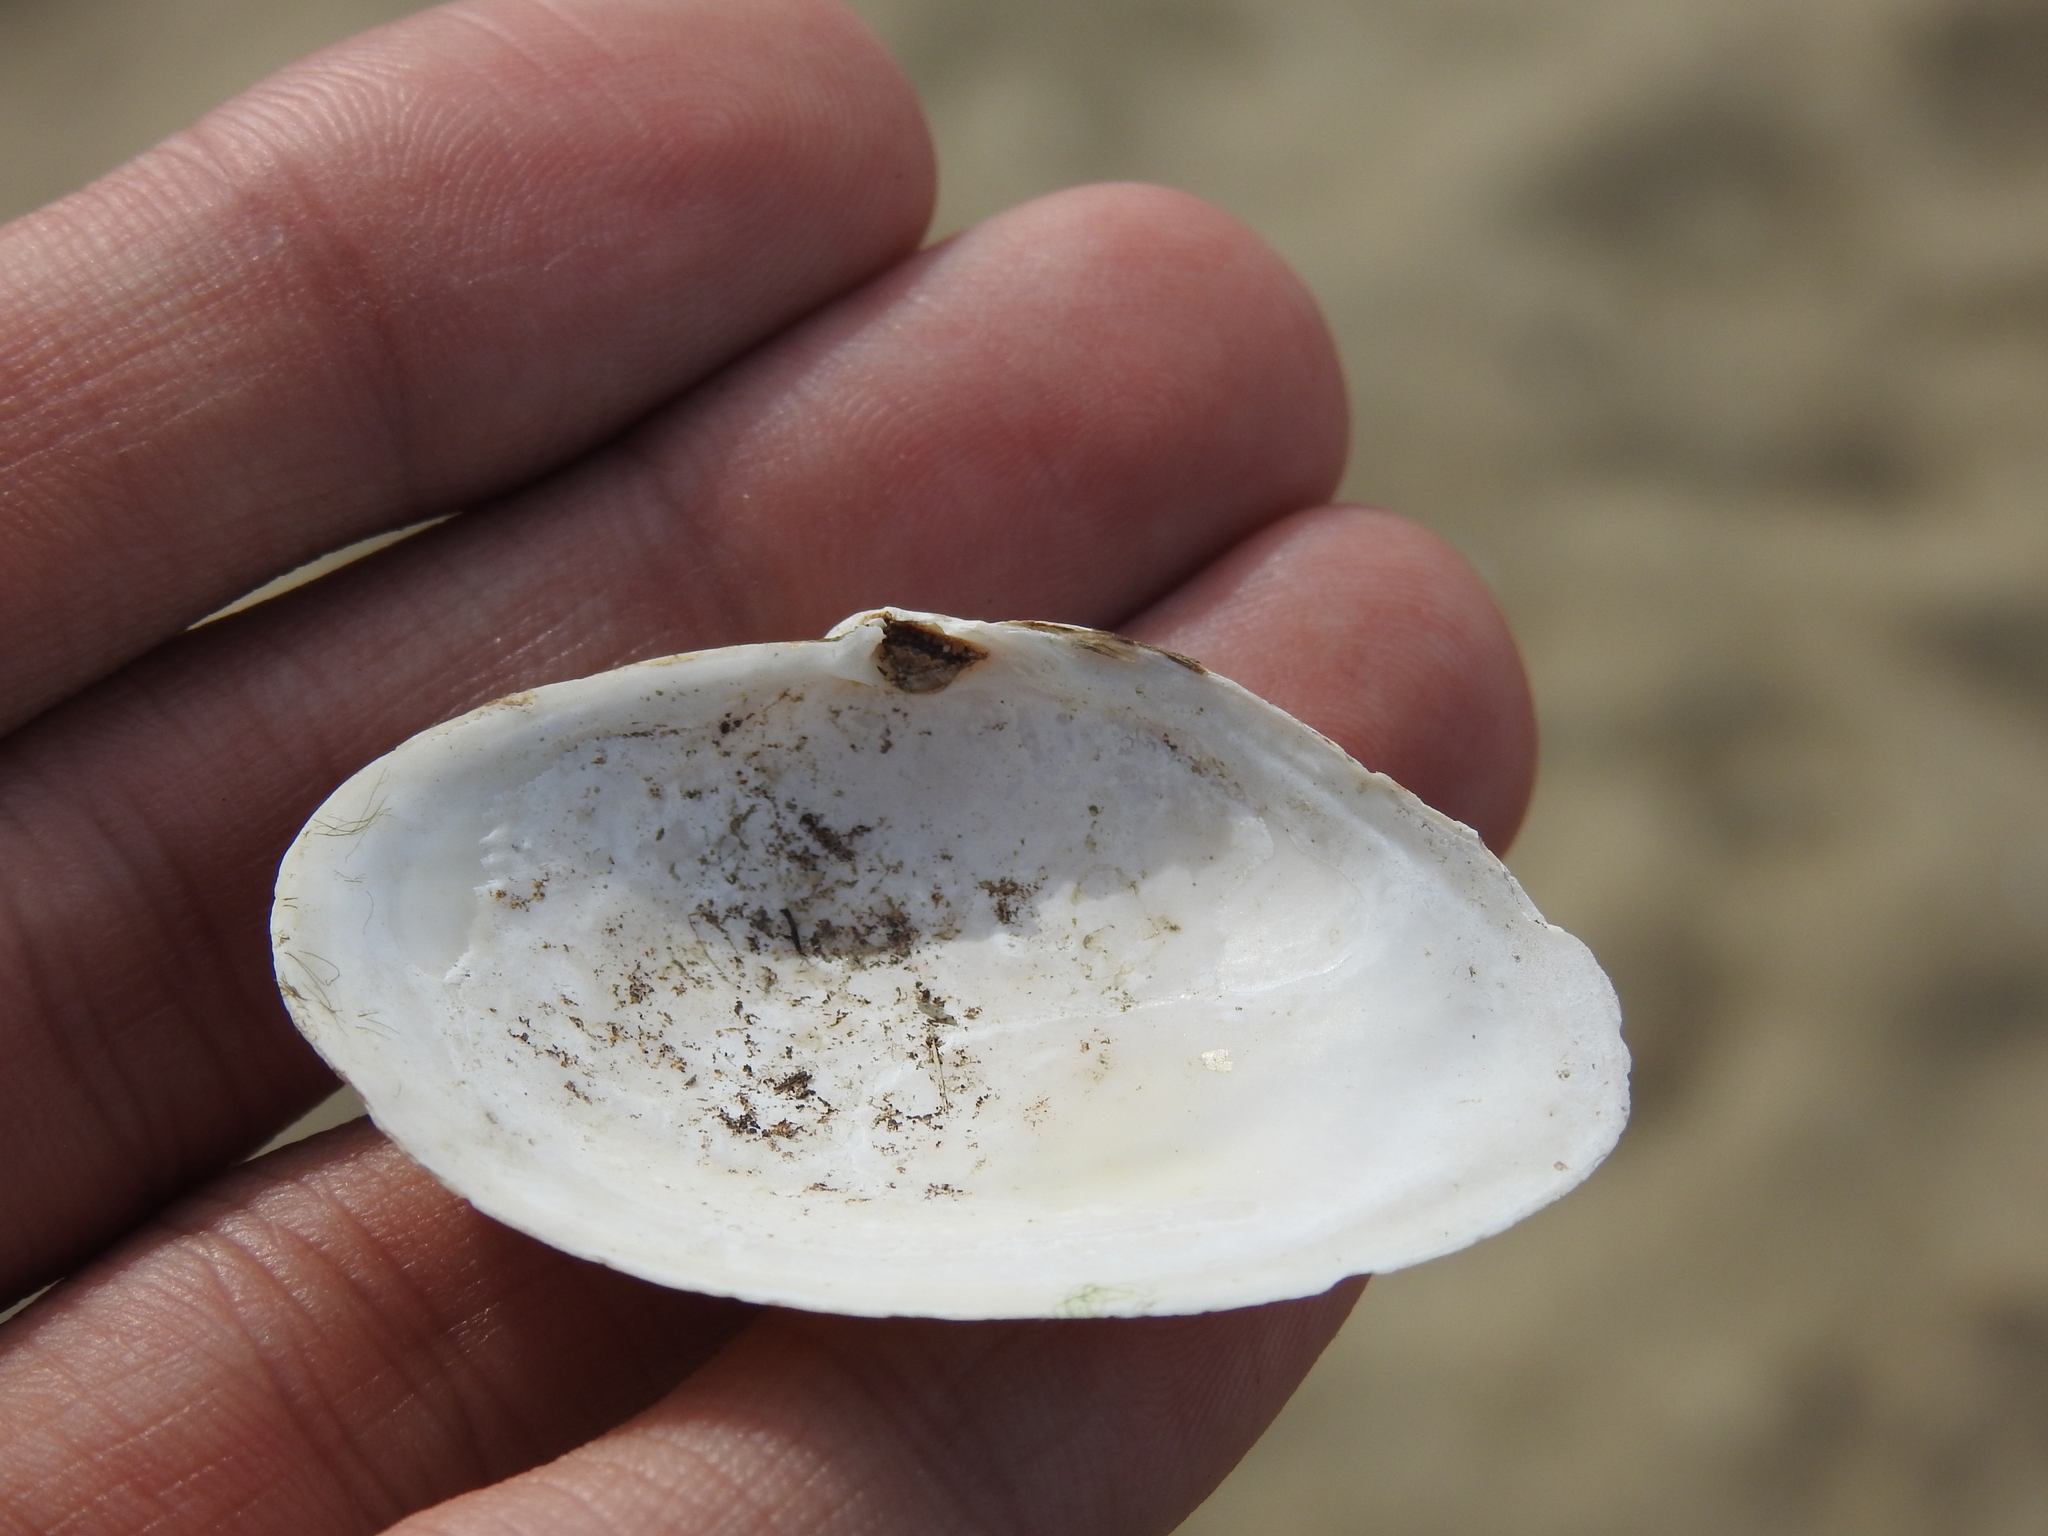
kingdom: Animalia
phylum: Mollusca
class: Bivalvia
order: Myida
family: Myidae
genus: Mya
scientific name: Mya arenaria
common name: Soft-shelled clam
